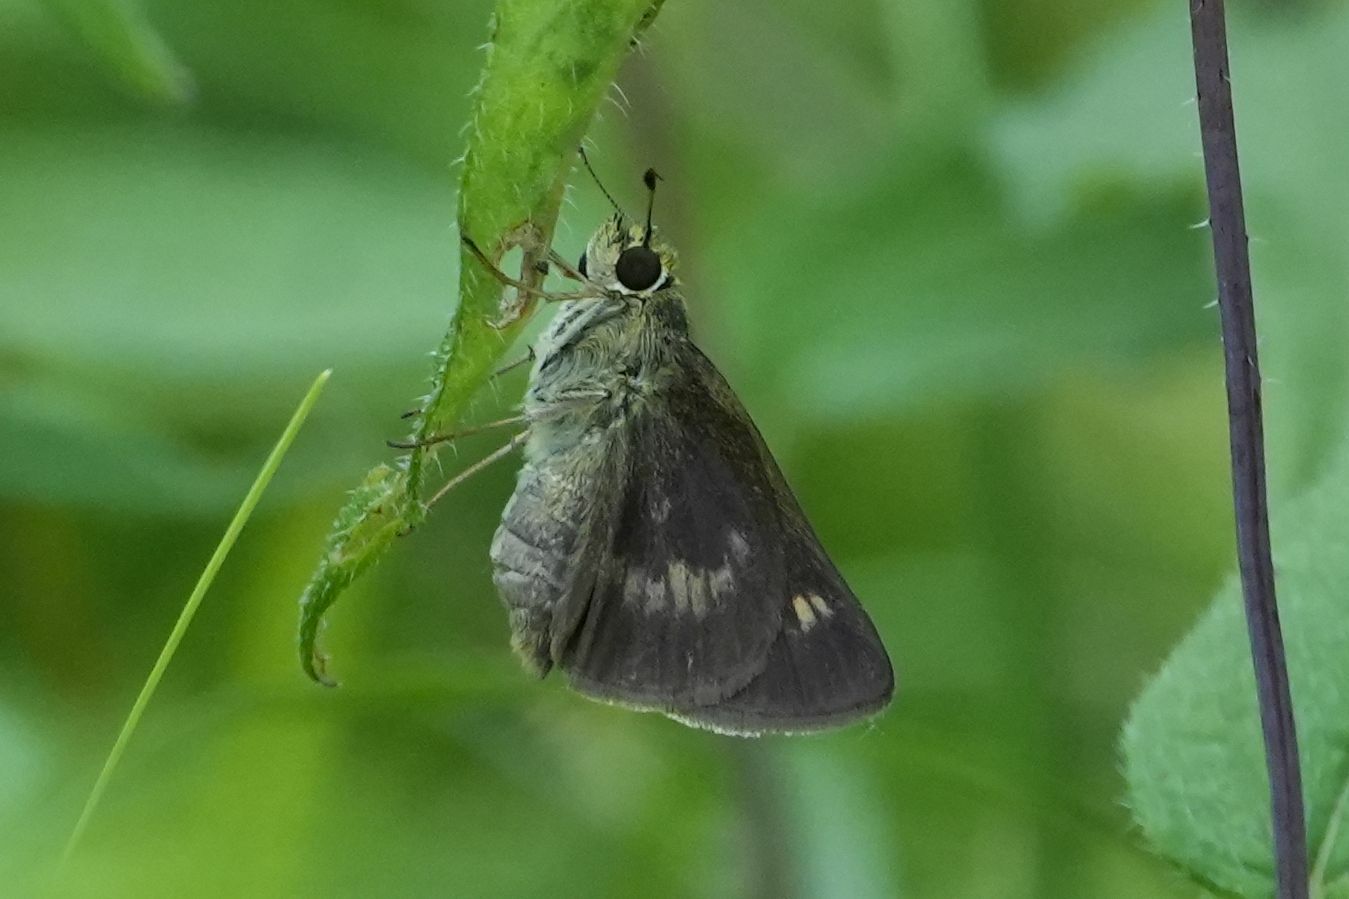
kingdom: Animalia
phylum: Arthropoda
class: Insecta
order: Lepidoptera
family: Hesperiidae
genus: Polites
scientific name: Polites egeremet
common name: Northern broken-dash
